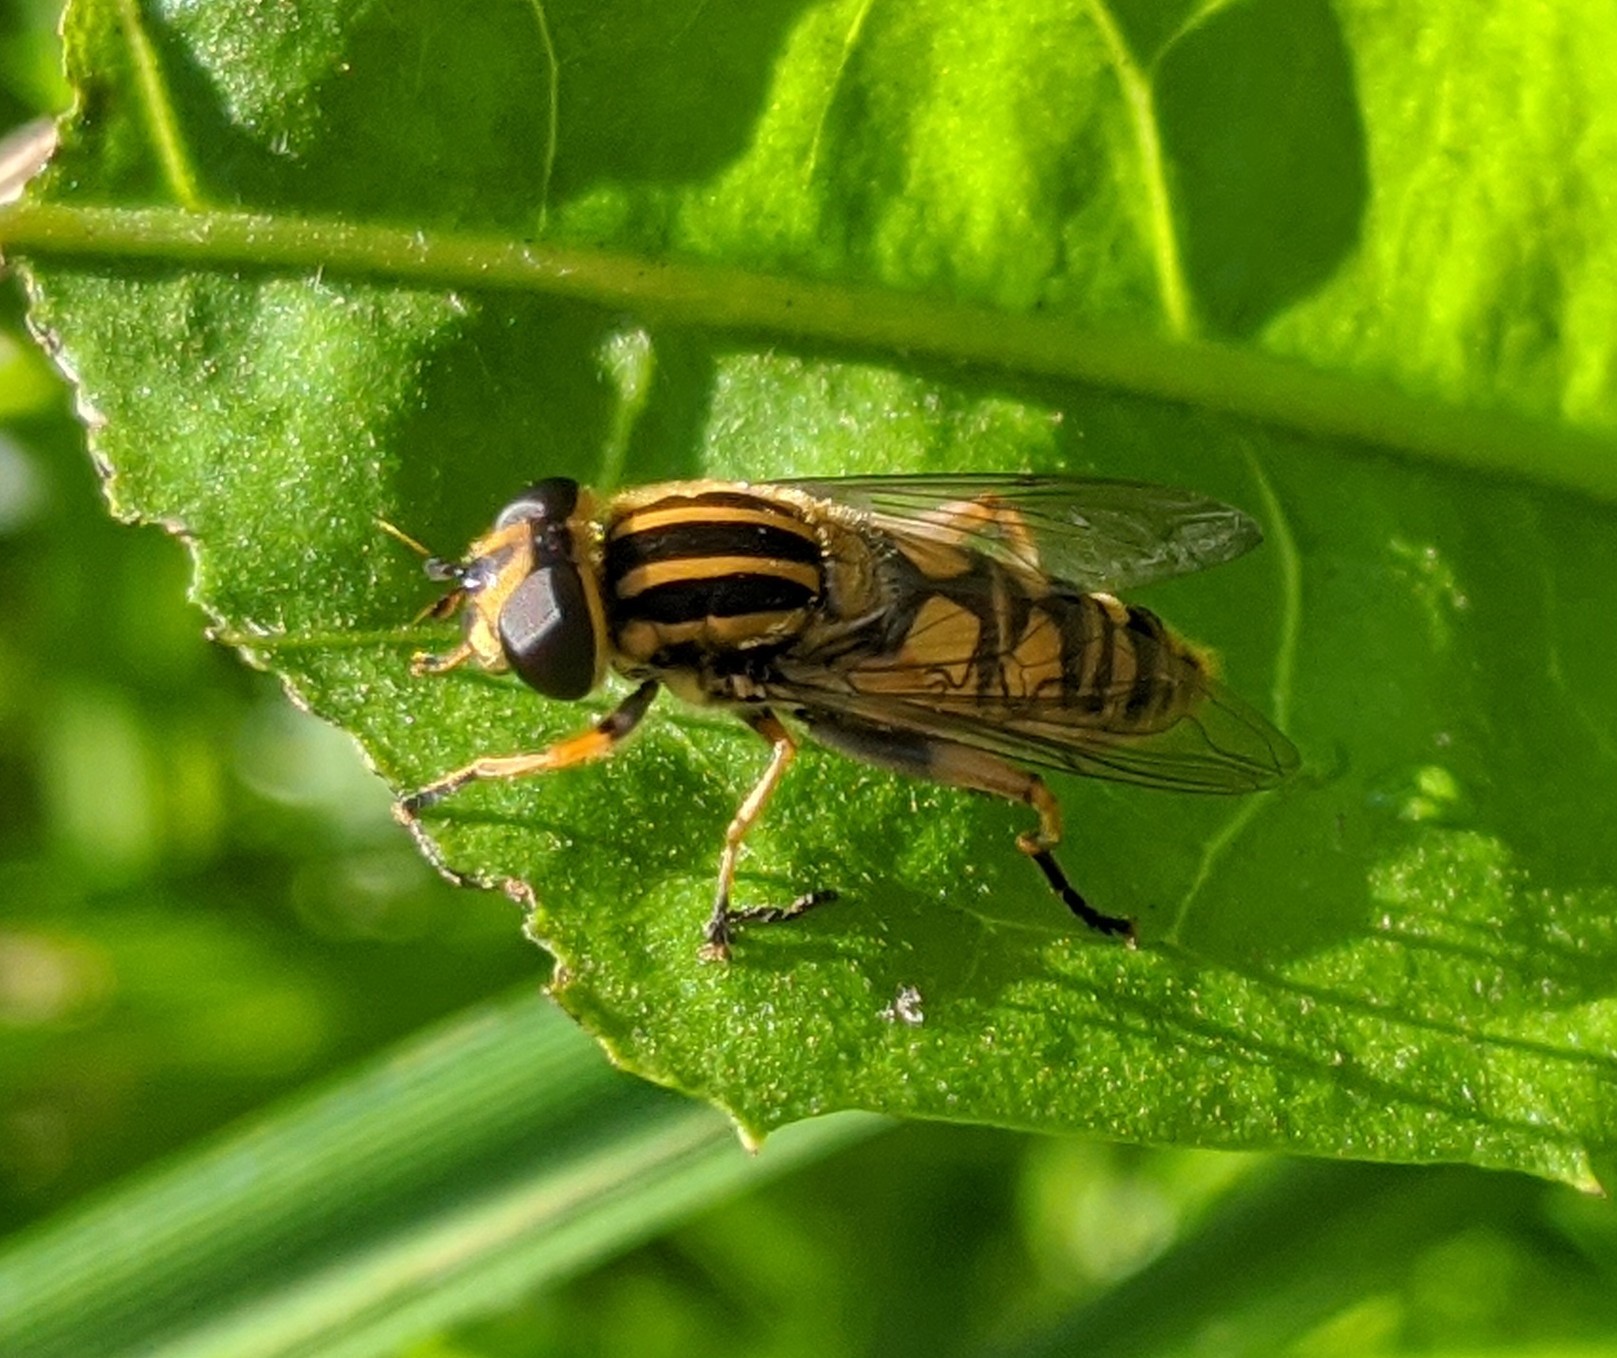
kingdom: Animalia
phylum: Arthropoda
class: Insecta
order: Diptera
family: Syrphidae
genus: Helophilus
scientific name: Helophilus pendulus
